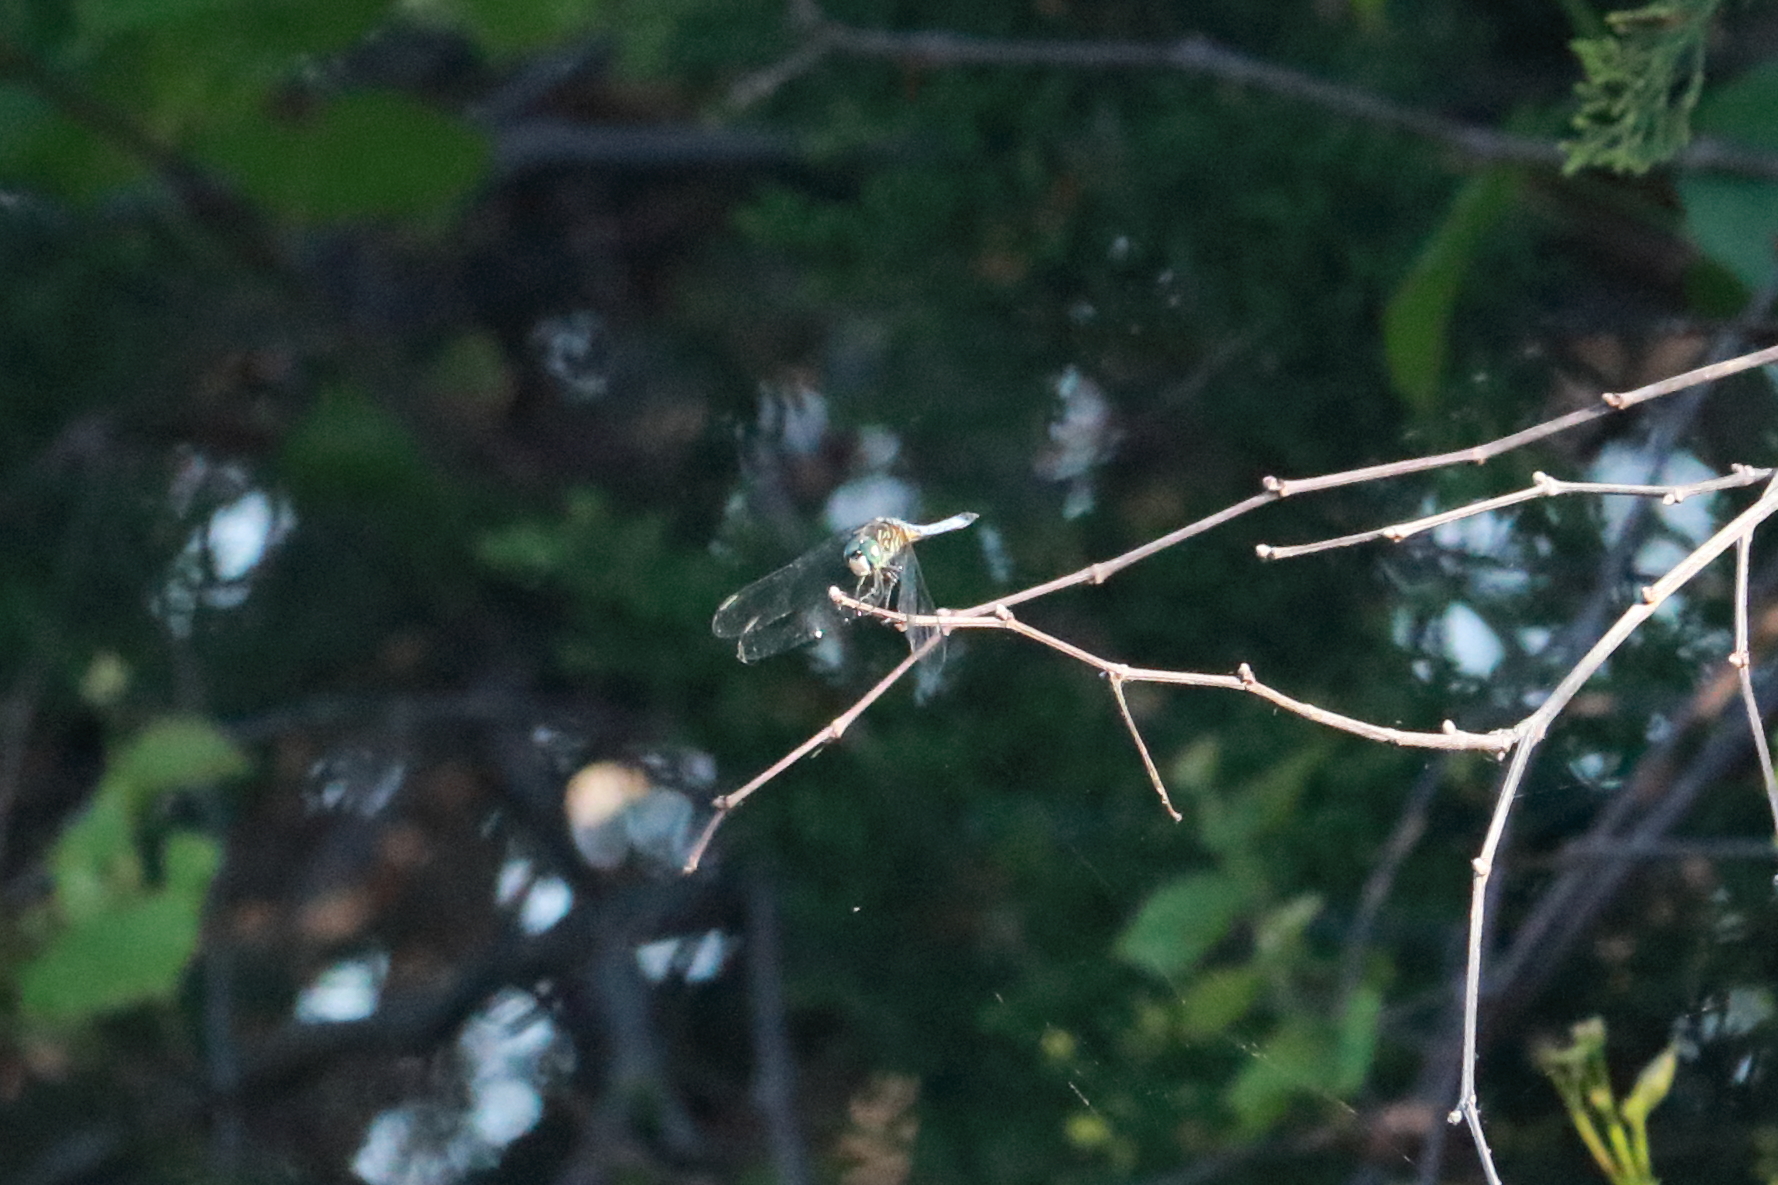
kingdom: Animalia
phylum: Arthropoda
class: Insecta
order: Odonata
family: Libellulidae
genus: Pachydiplax
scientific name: Pachydiplax longipennis
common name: Blue dasher
